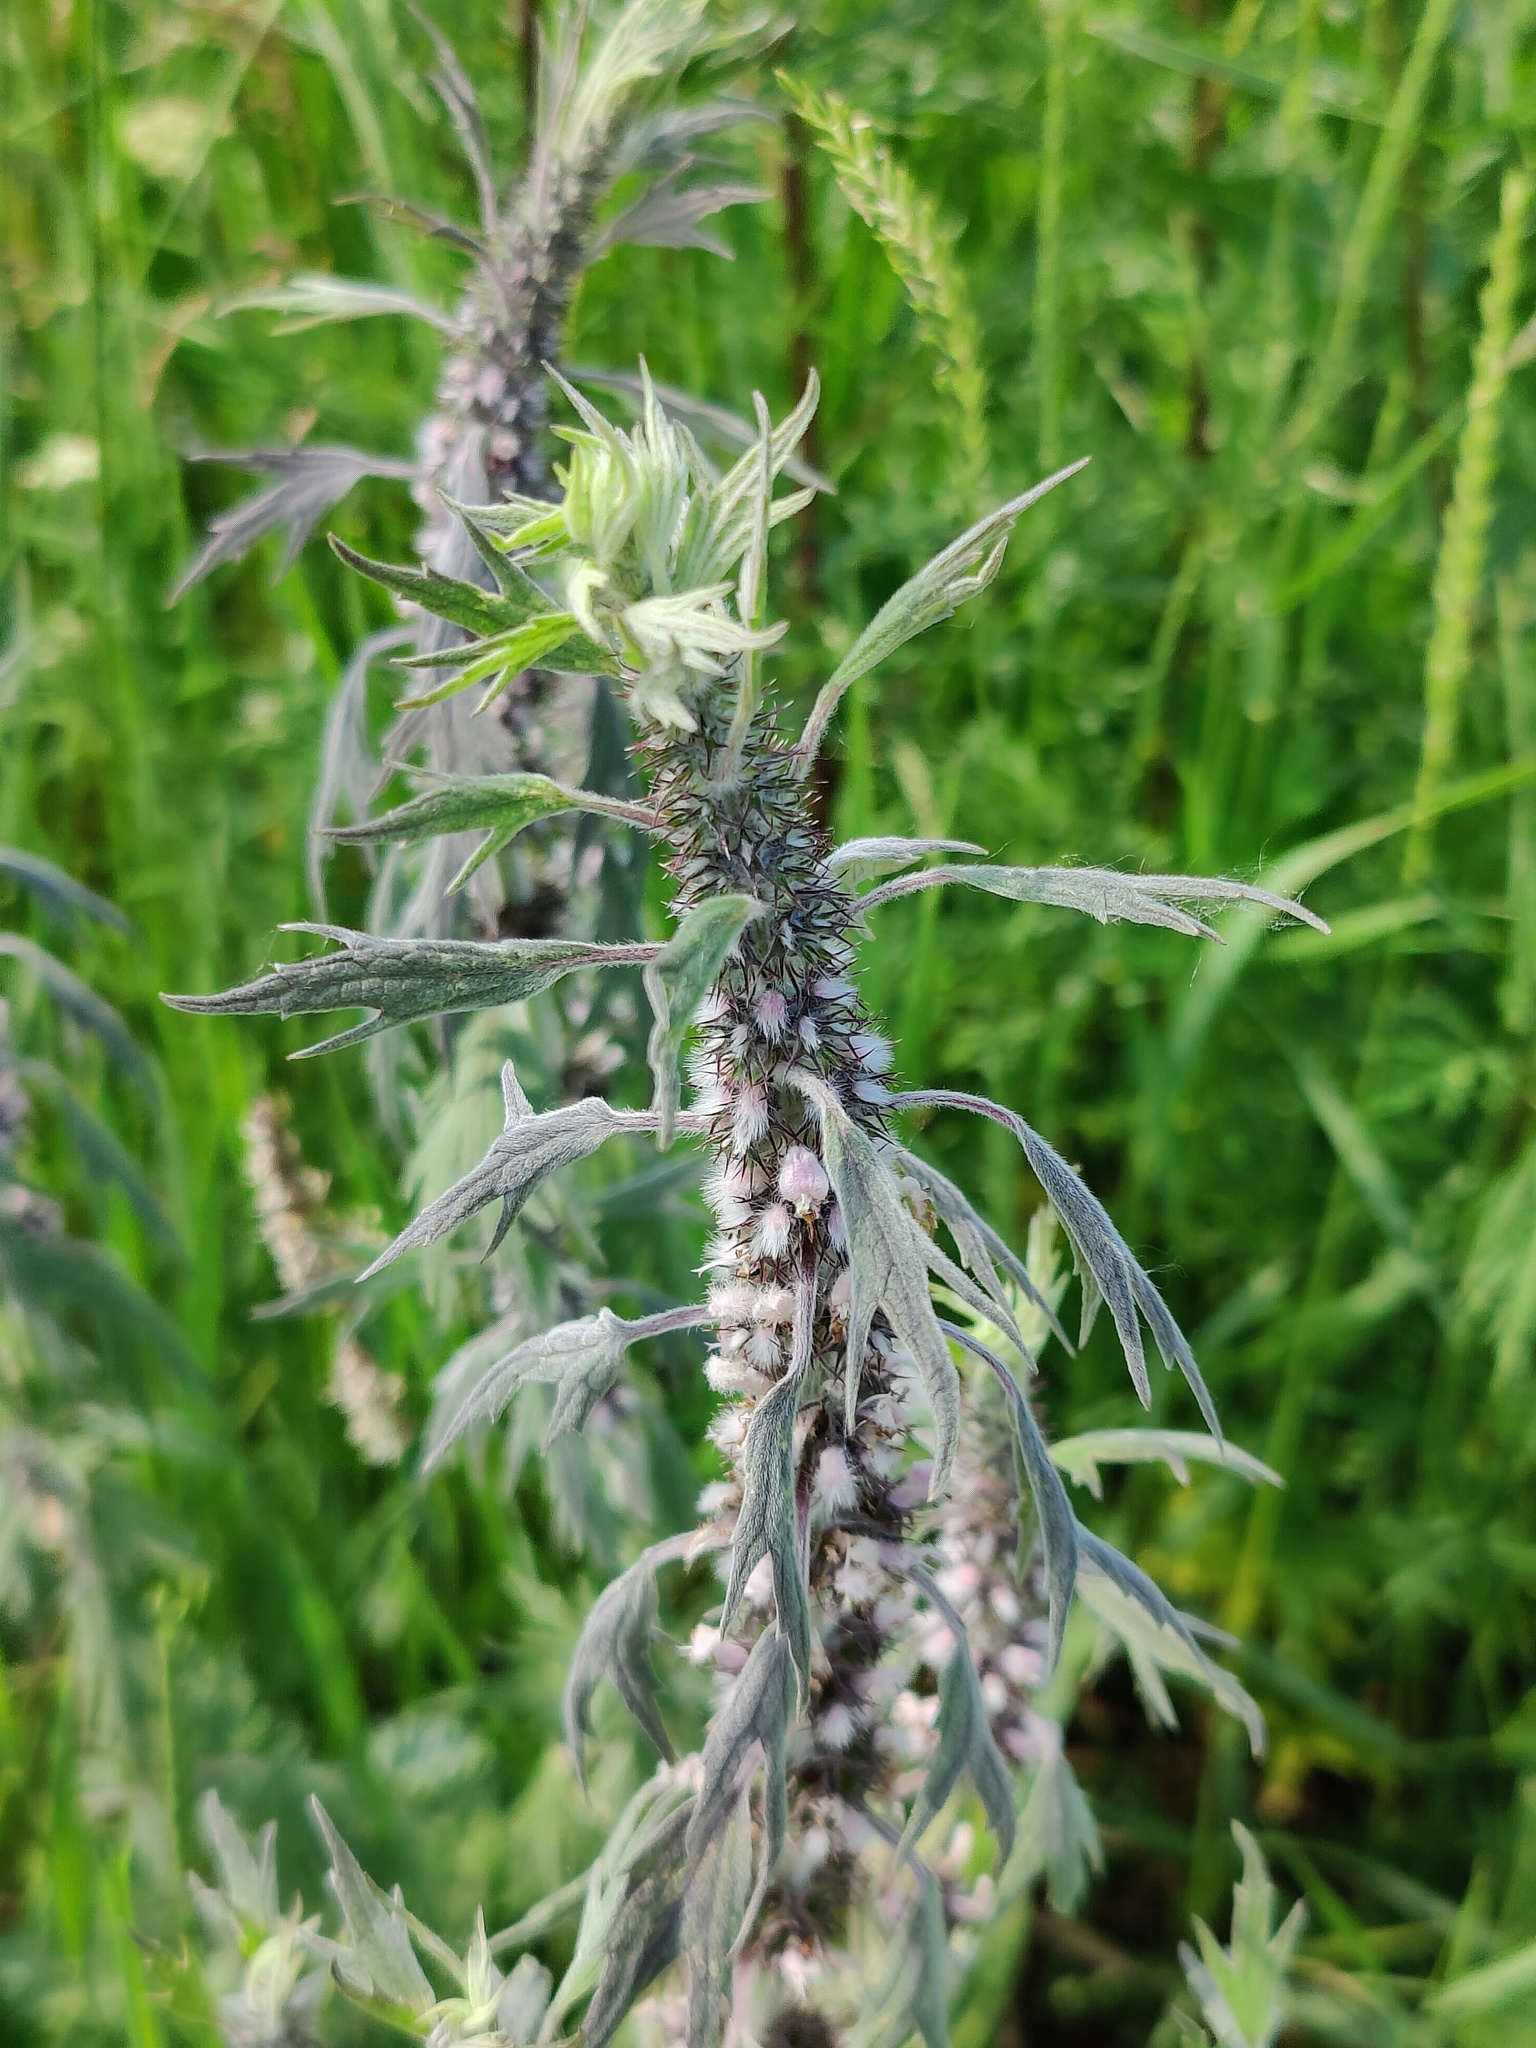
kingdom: Plantae
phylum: Tracheophyta
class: Magnoliopsida
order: Lamiales
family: Lamiaceae
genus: Leonurus
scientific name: Leonurus quinquelobatus
